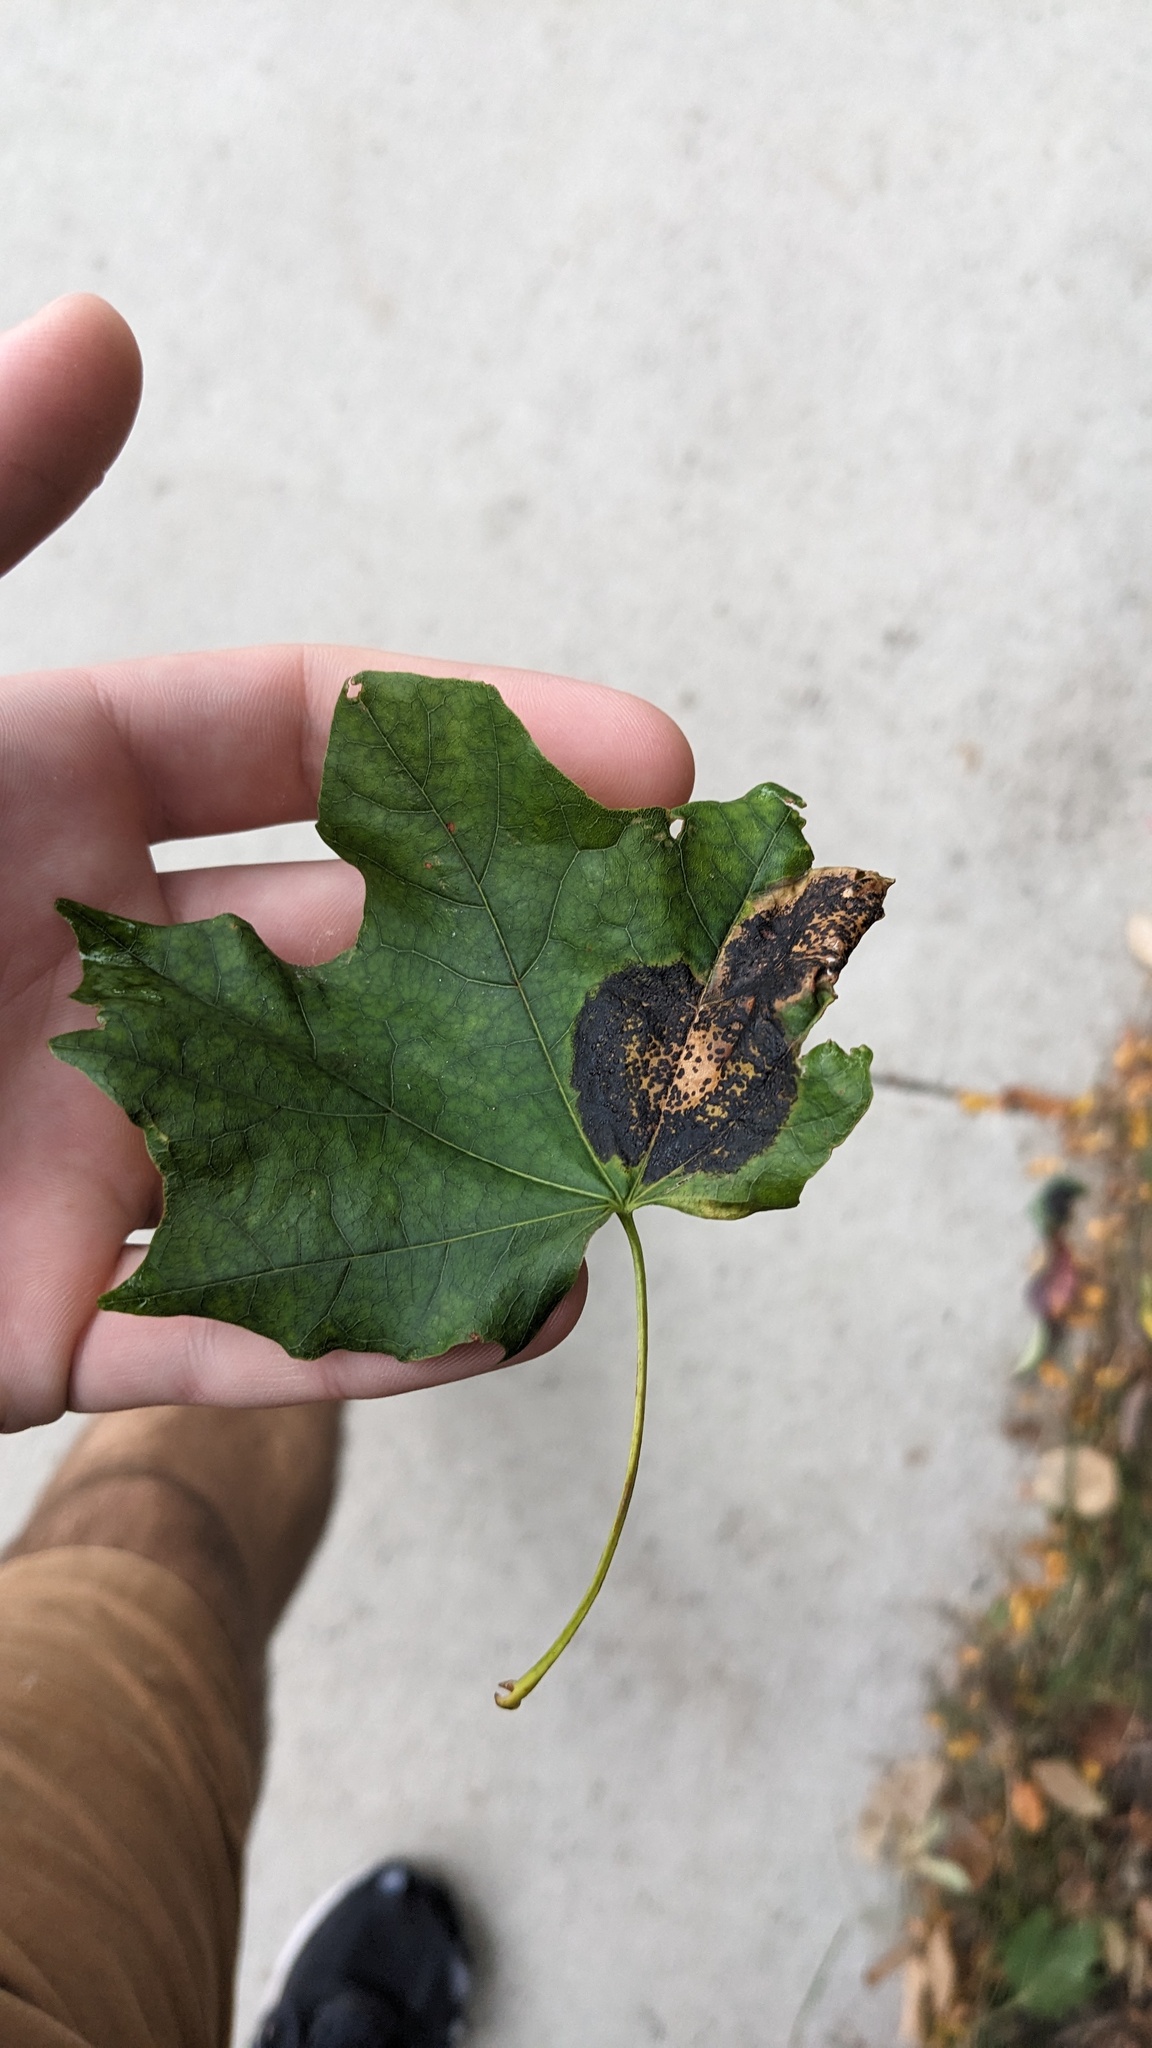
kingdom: Fungi
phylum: Ascomycota
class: Leotiomycetes
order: Rhytismatales
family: Rhytismataceae
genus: Rhytisma
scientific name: Rhytisma acerinum
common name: European tar spot
